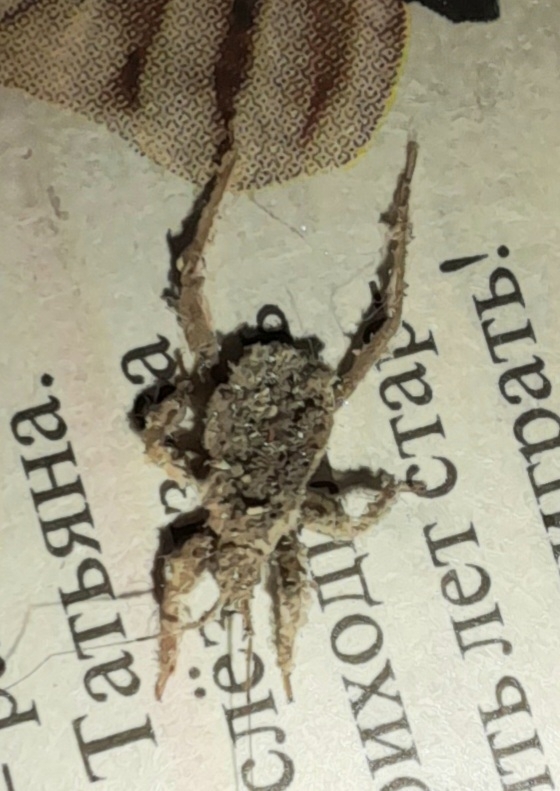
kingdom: Animalia
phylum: Arthropoda
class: Insecta
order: Hemiptera
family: Reduviidae
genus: Reduvius
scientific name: Reduvius personatus
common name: Masked hunter
